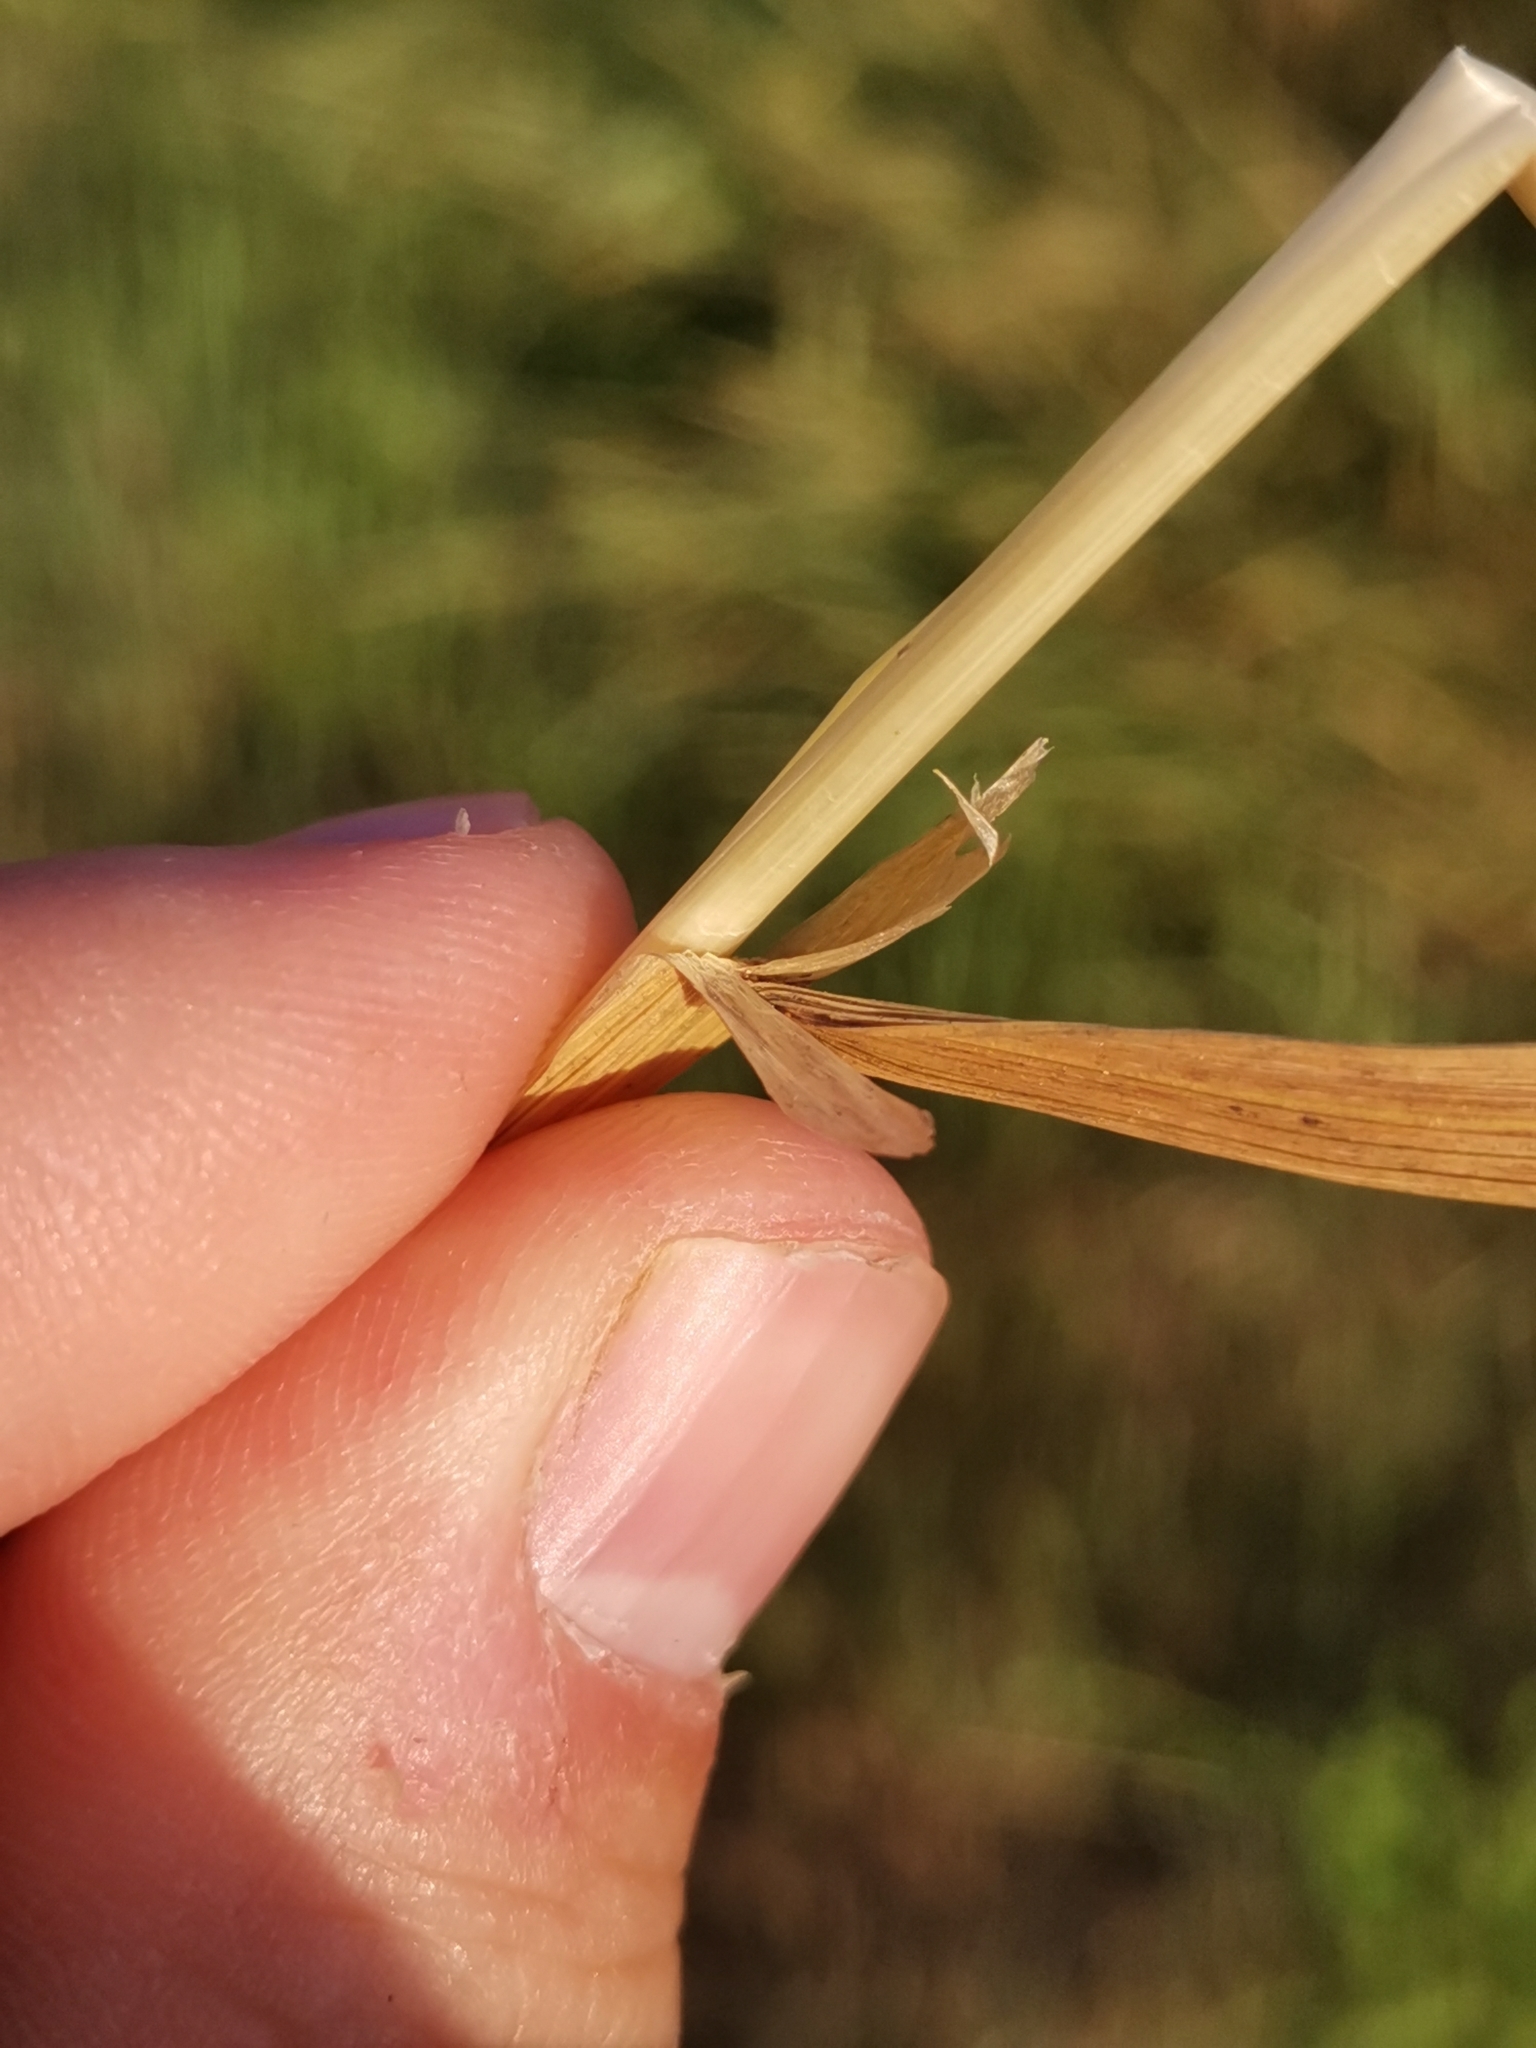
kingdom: Plantae
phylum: Tracheophyta
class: Liliopsida
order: Poales
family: Poaceae
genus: Apera
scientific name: Apera spica-venti
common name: Loose silky-bent
